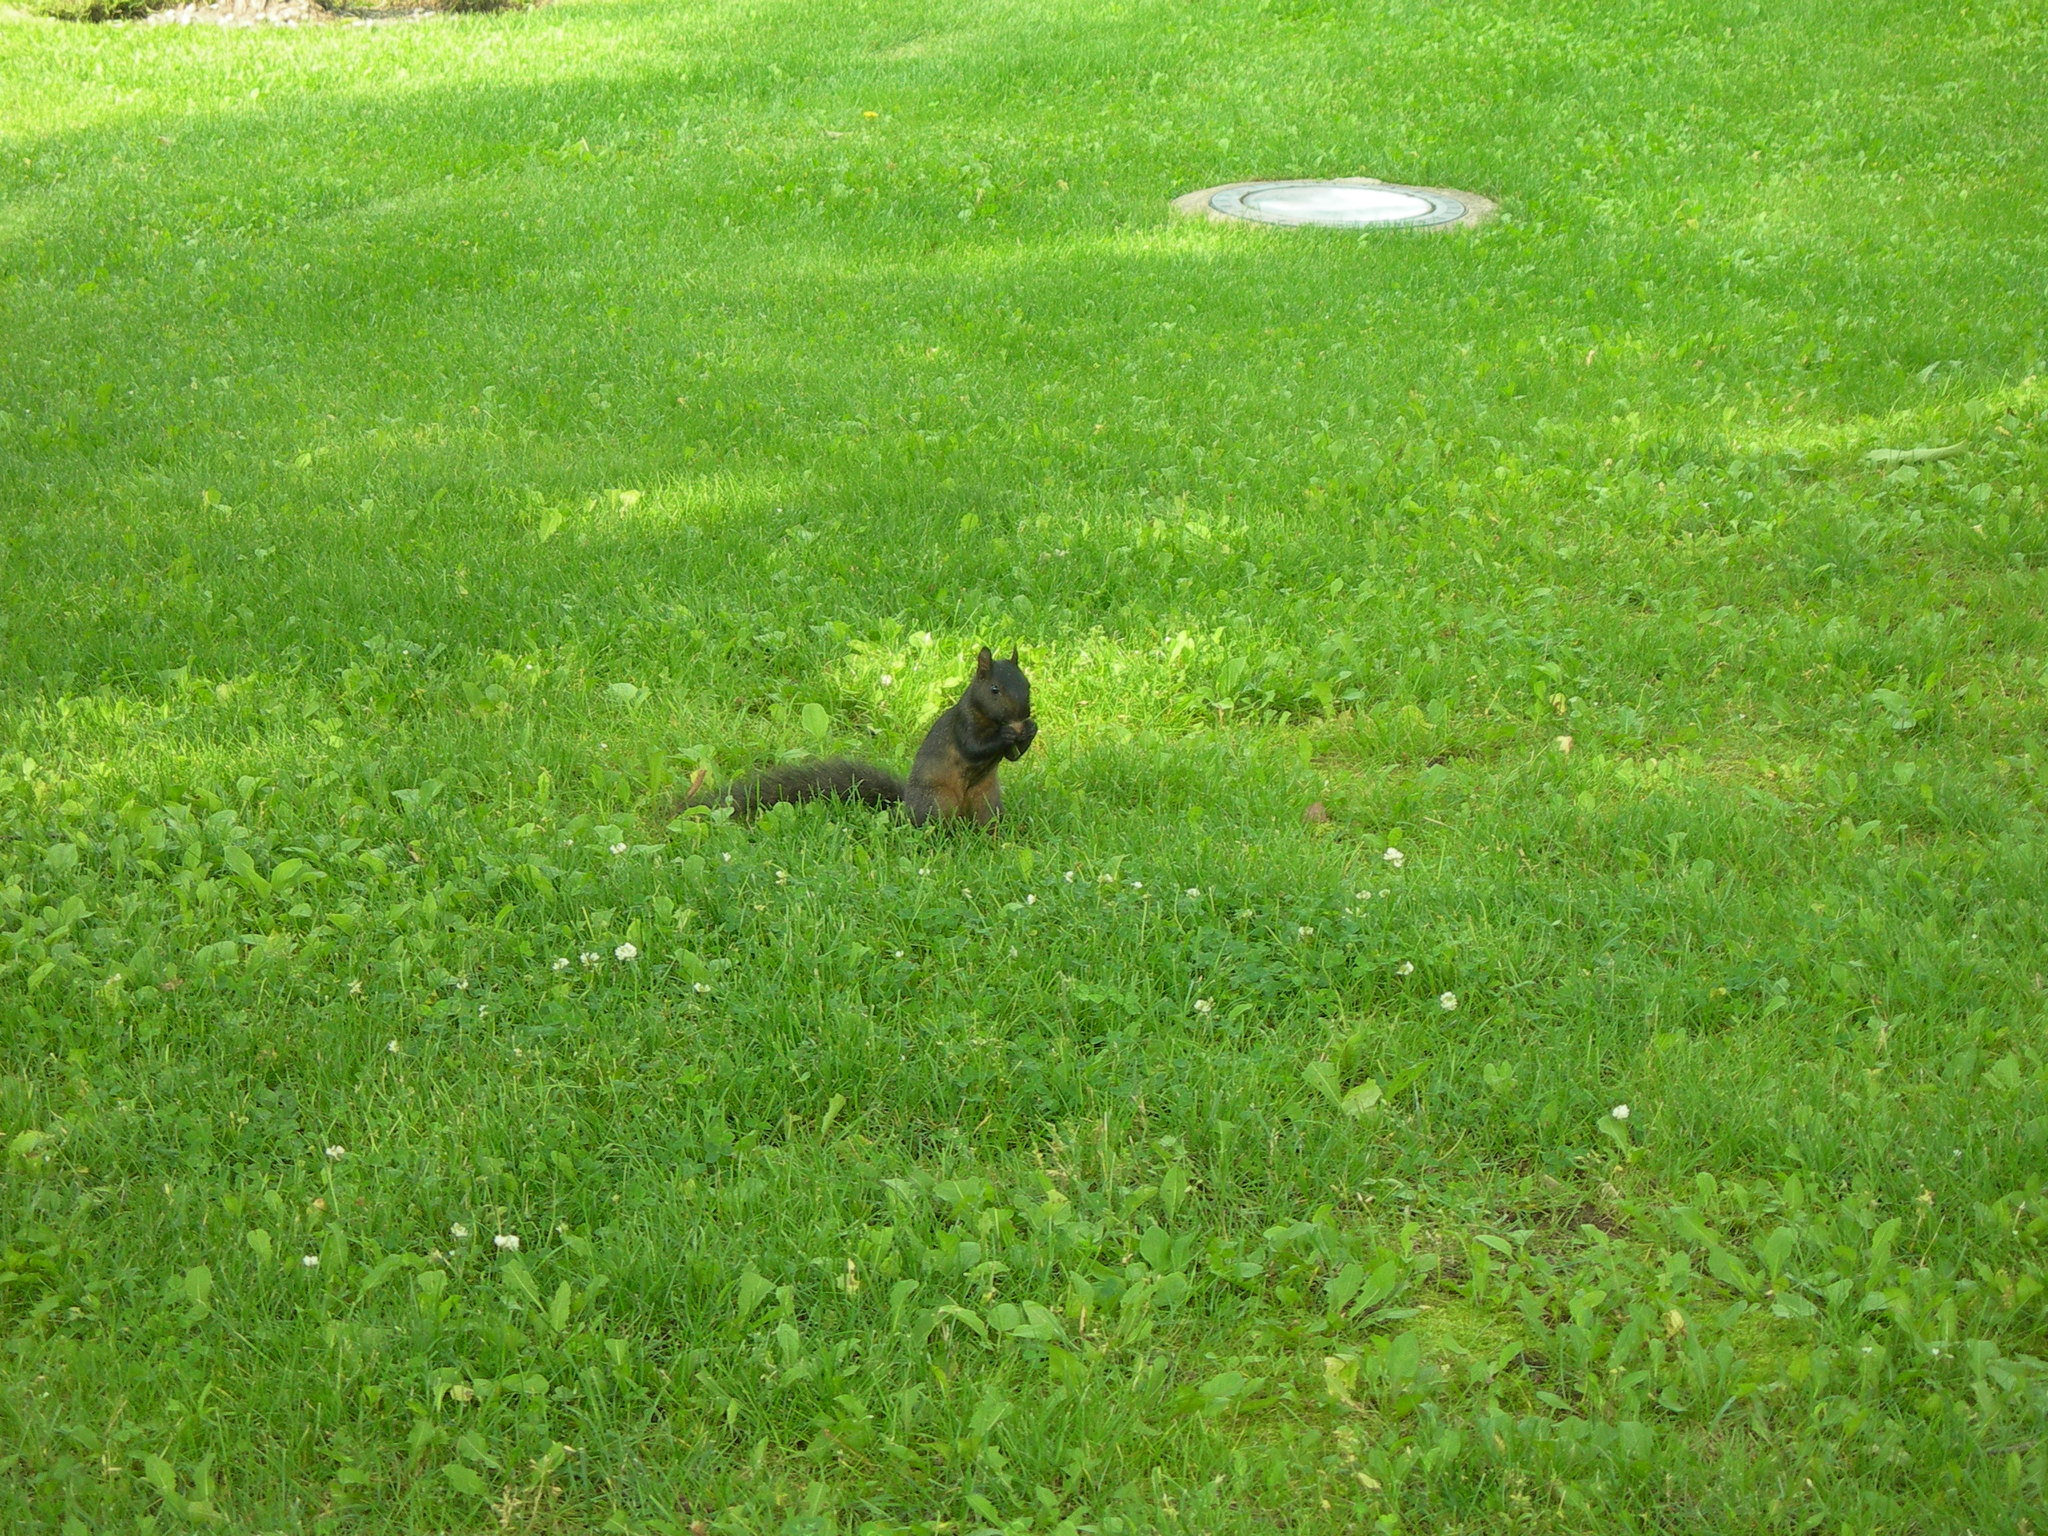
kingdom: Animalia
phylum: Chordata
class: Mammalia
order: Rodentia
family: Sciuridae
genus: Sciurus
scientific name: Sciurus carolinensis
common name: Eastern gray squirrel
